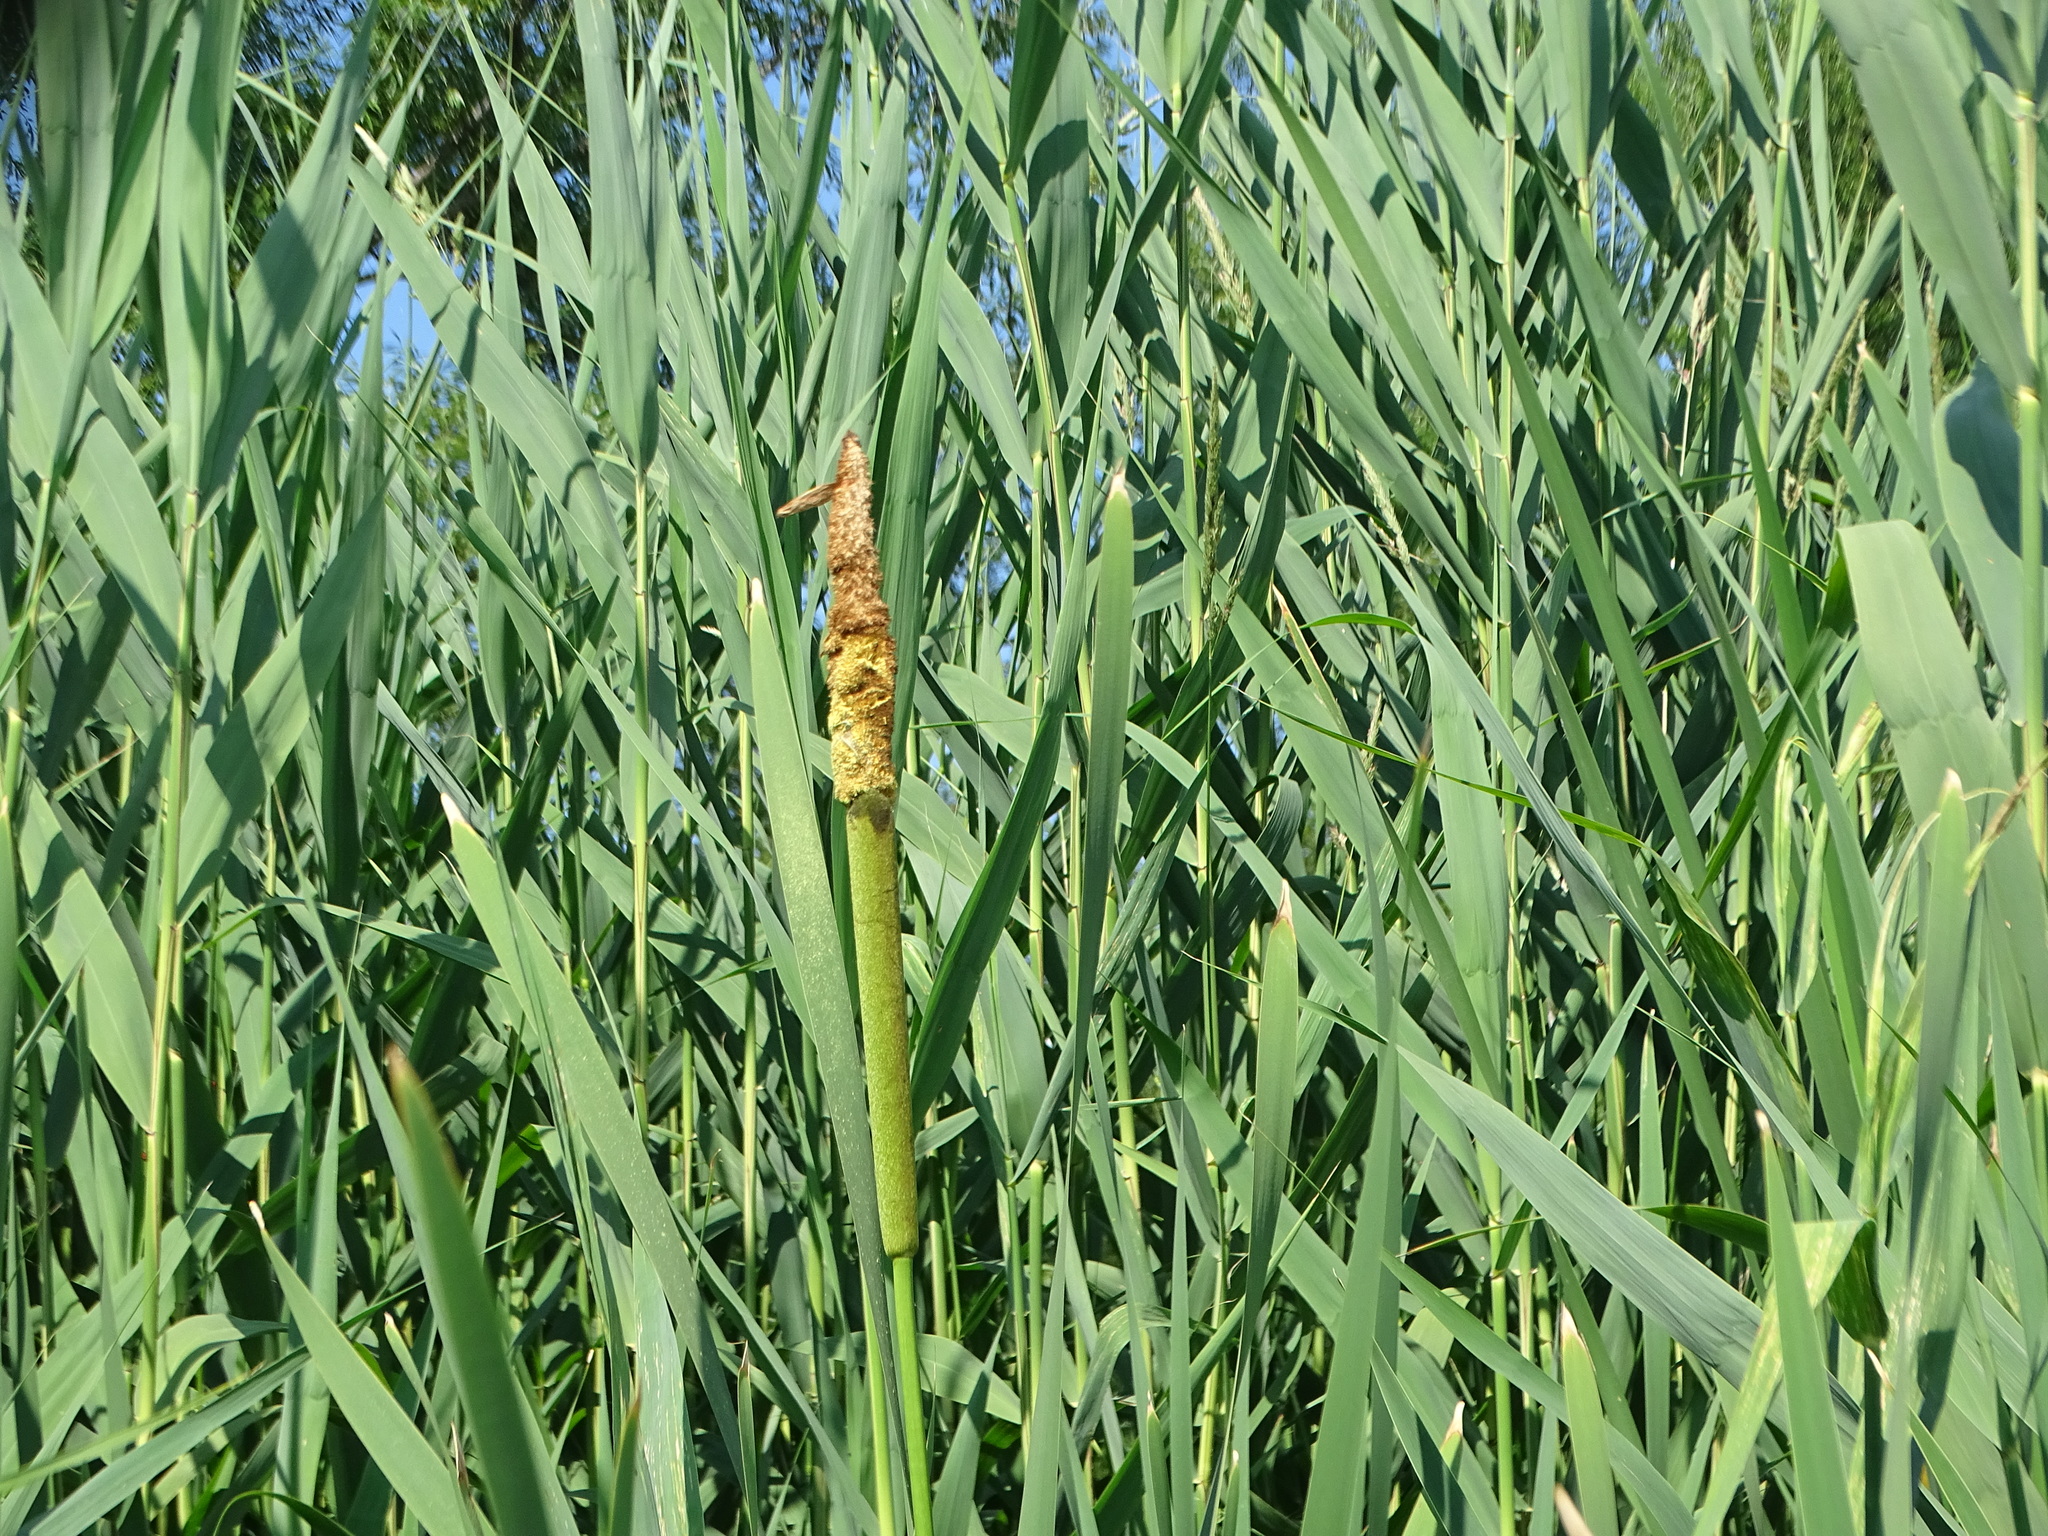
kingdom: Plantae
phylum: Tracheophyta
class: Liliopsida
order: Poales
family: Typhaceae
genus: Typha
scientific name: Typha latifolia
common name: Broadleaf cattail
